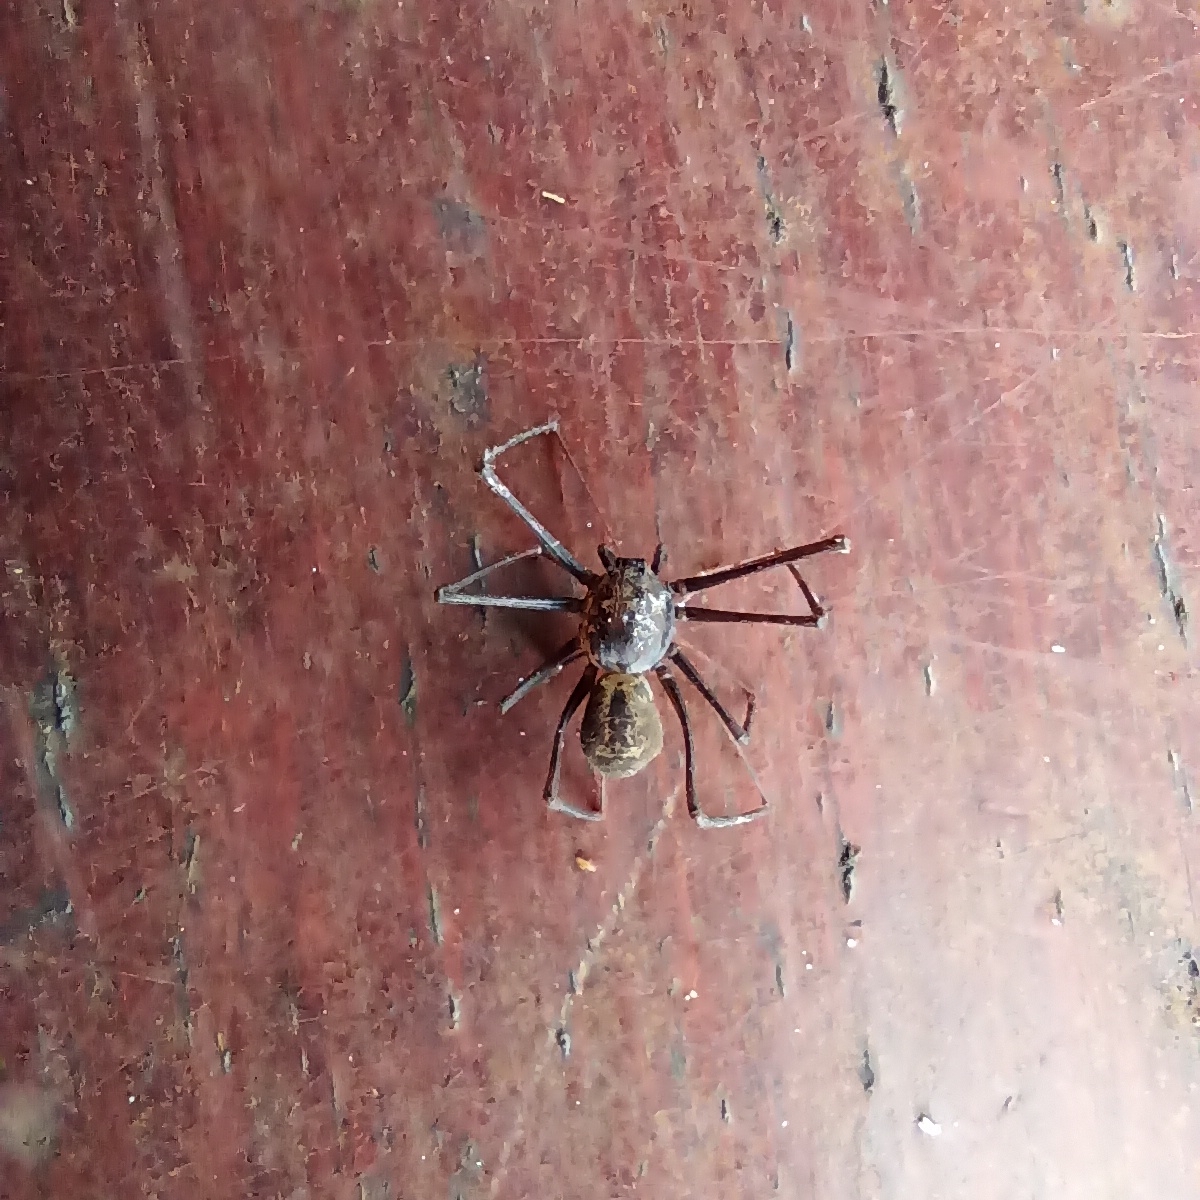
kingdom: Animalia
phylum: Arthropoda
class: Arachnida
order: Araneae
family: Scytodidae
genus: Scytodes
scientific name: Scytodes globula
